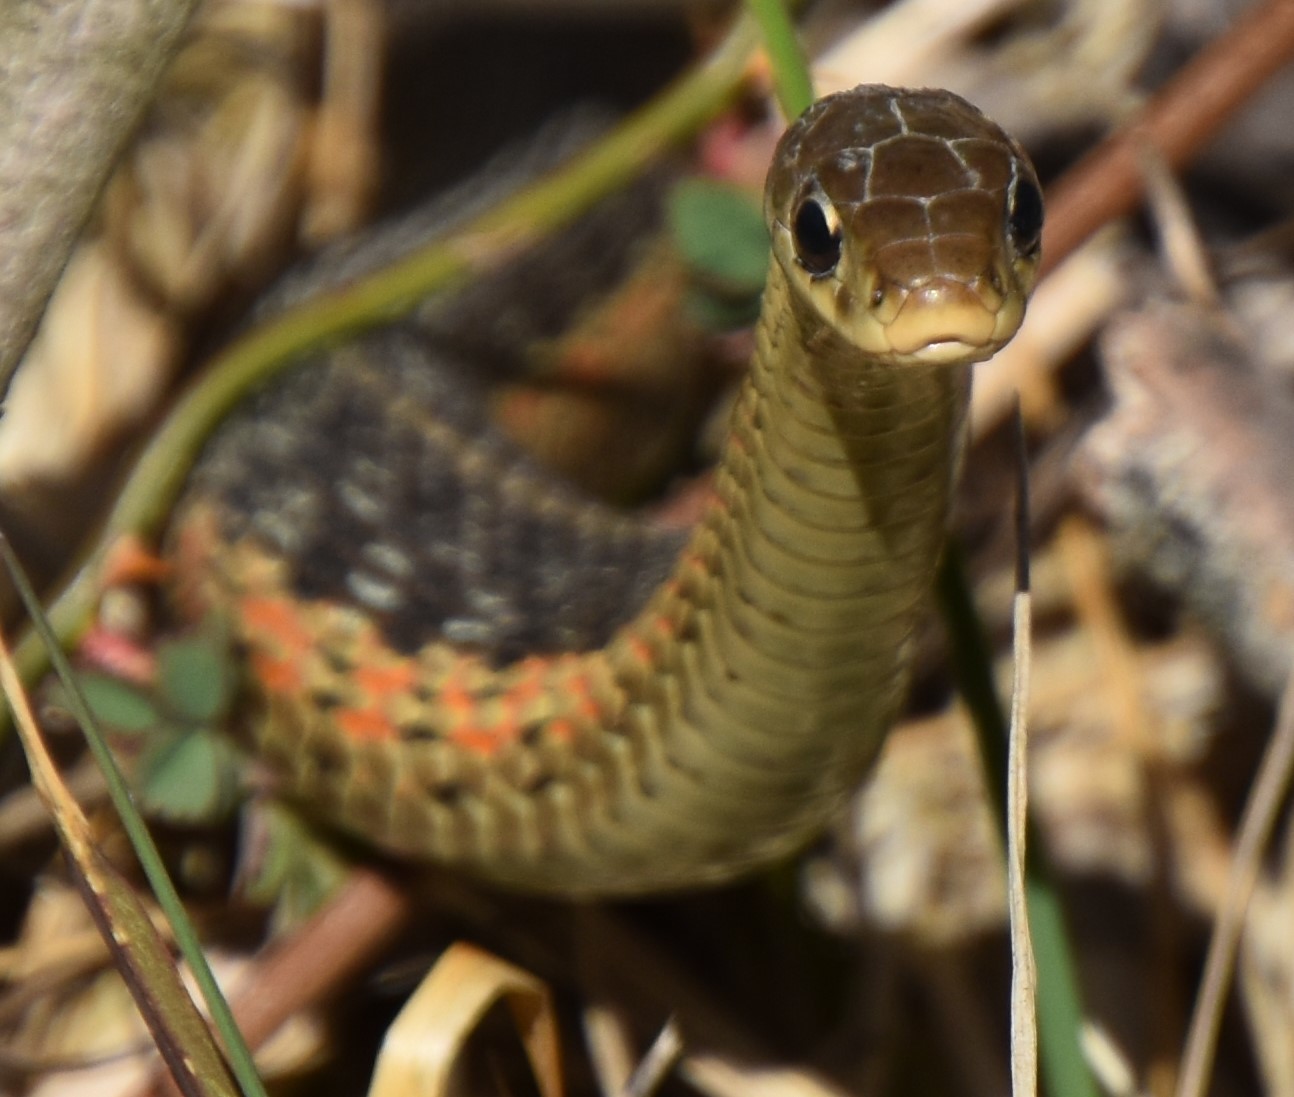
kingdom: Animalia
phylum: Chordata
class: Squamata
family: Colubridae
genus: Thamnophis
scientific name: Thamnophis sirtalis
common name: Common garter snake
